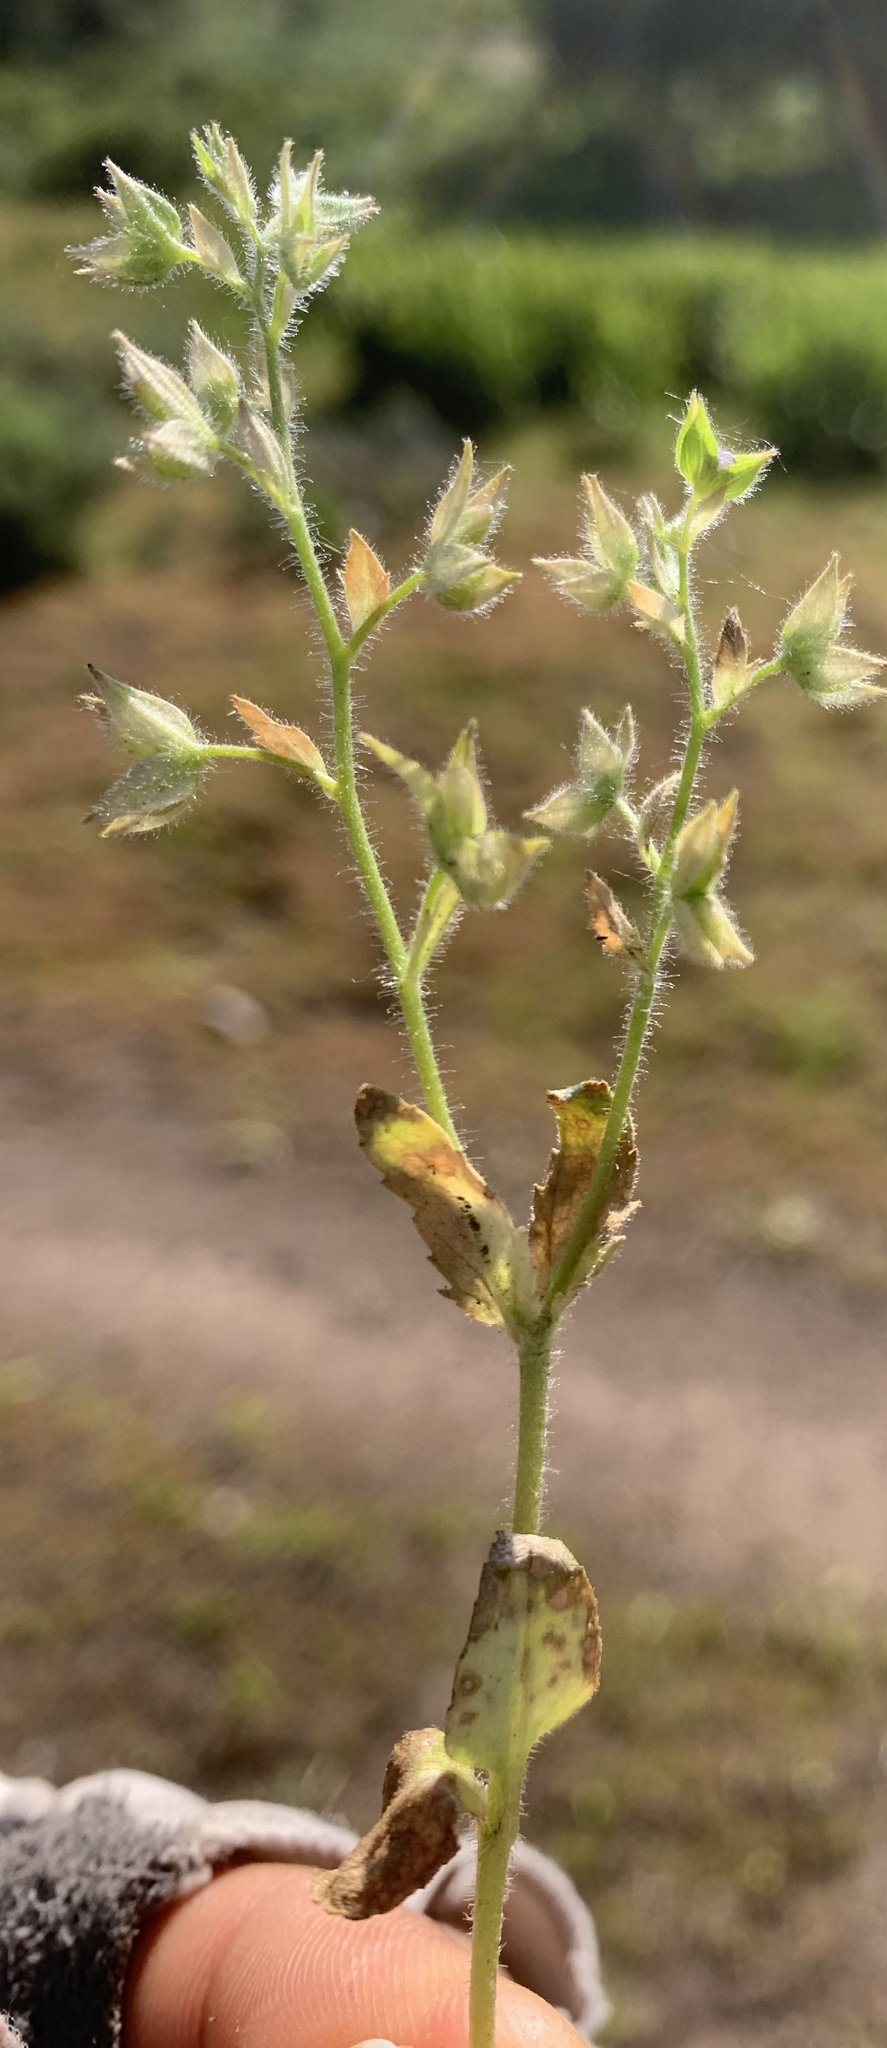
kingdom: Plantae
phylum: Tracheophyta
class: Magnoliopsida
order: Lamiales
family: Plantaginaceae
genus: Veronica
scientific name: Veronica argute-serrata
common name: Sawtooth speedwell
